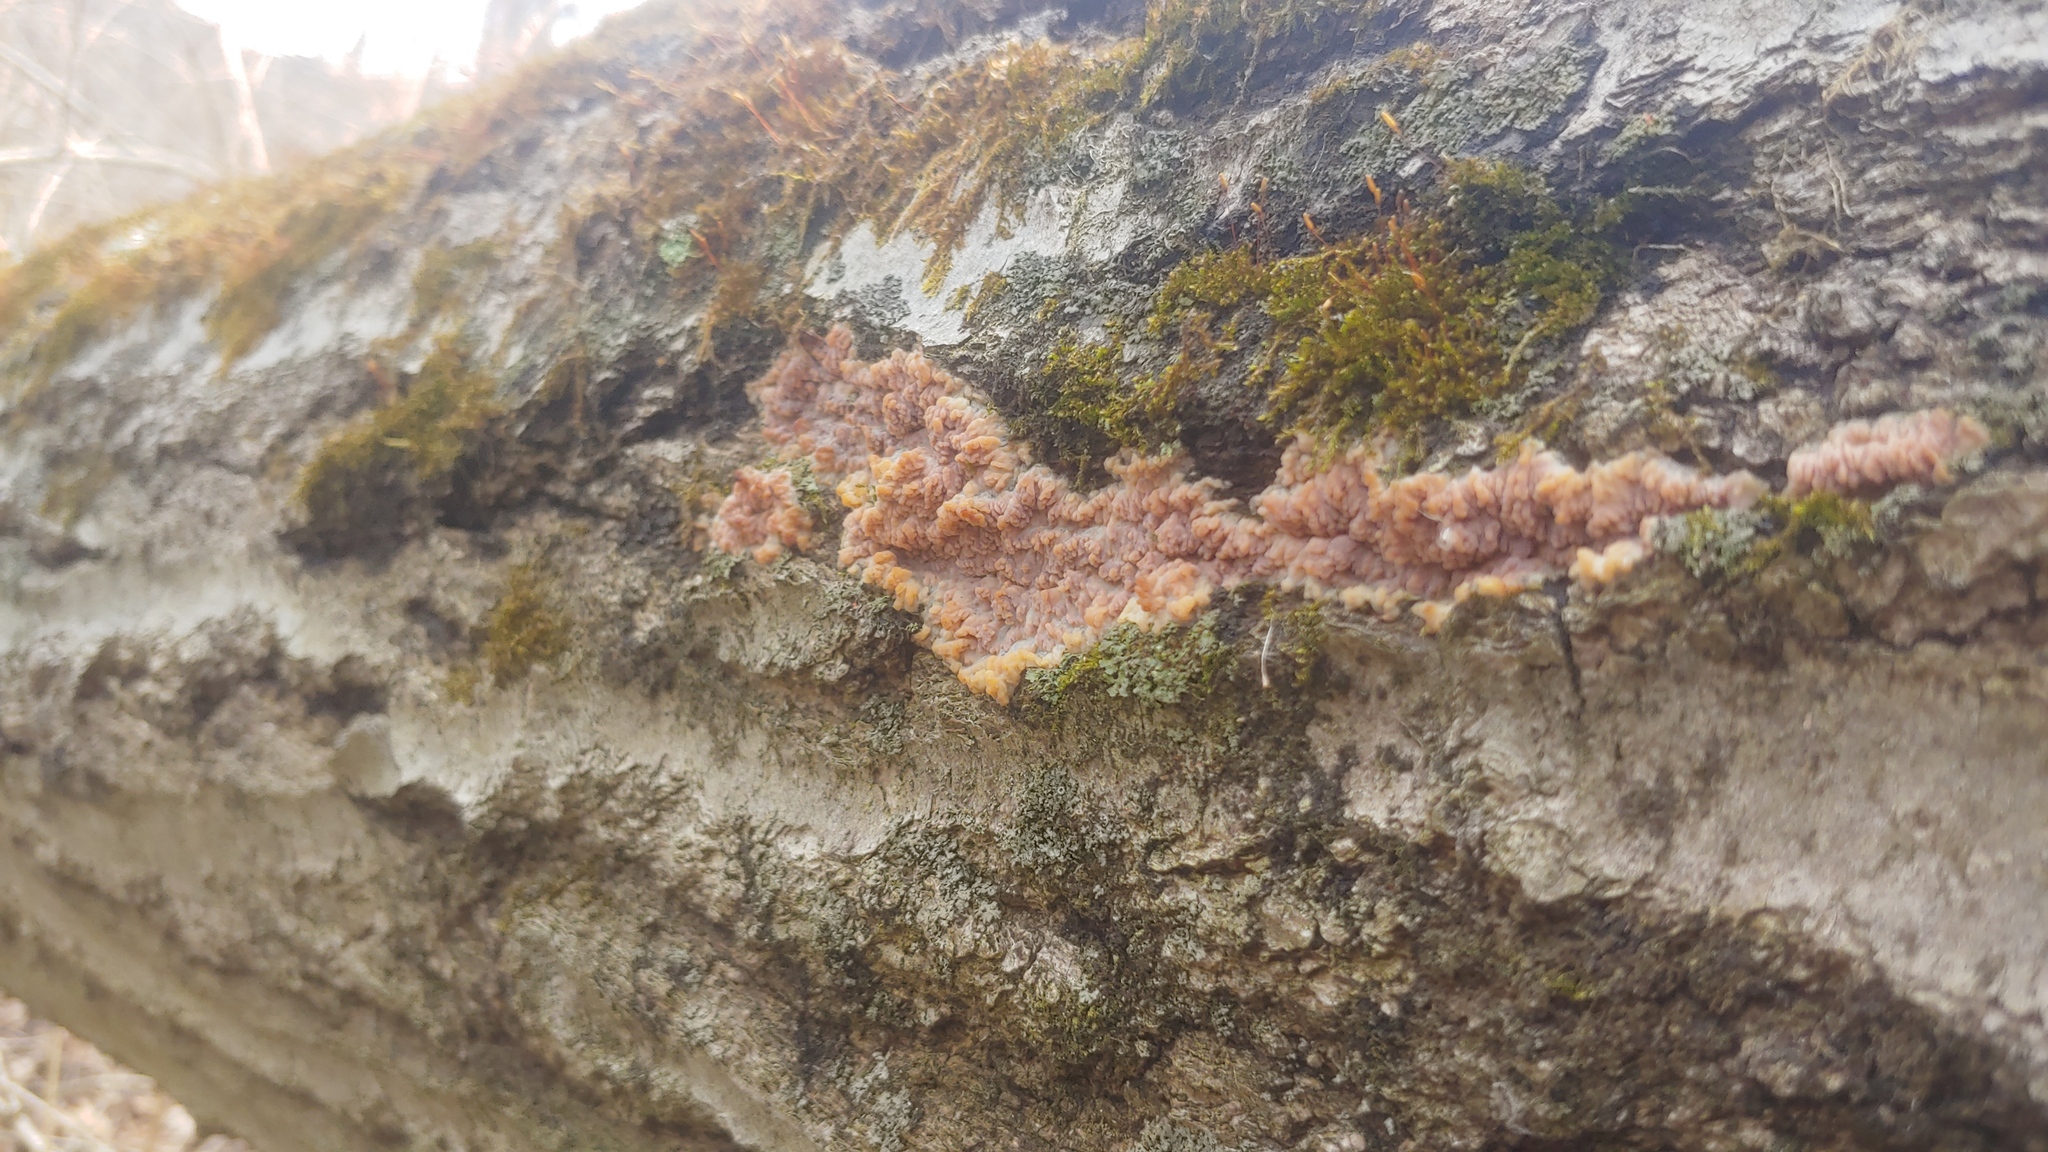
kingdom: Fungi
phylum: Basidiomycota
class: Agaricomycetes
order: Polyporales
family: Meruliaceae
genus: Phlebia
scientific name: Phlebia radiata
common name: Wrinkled crust
